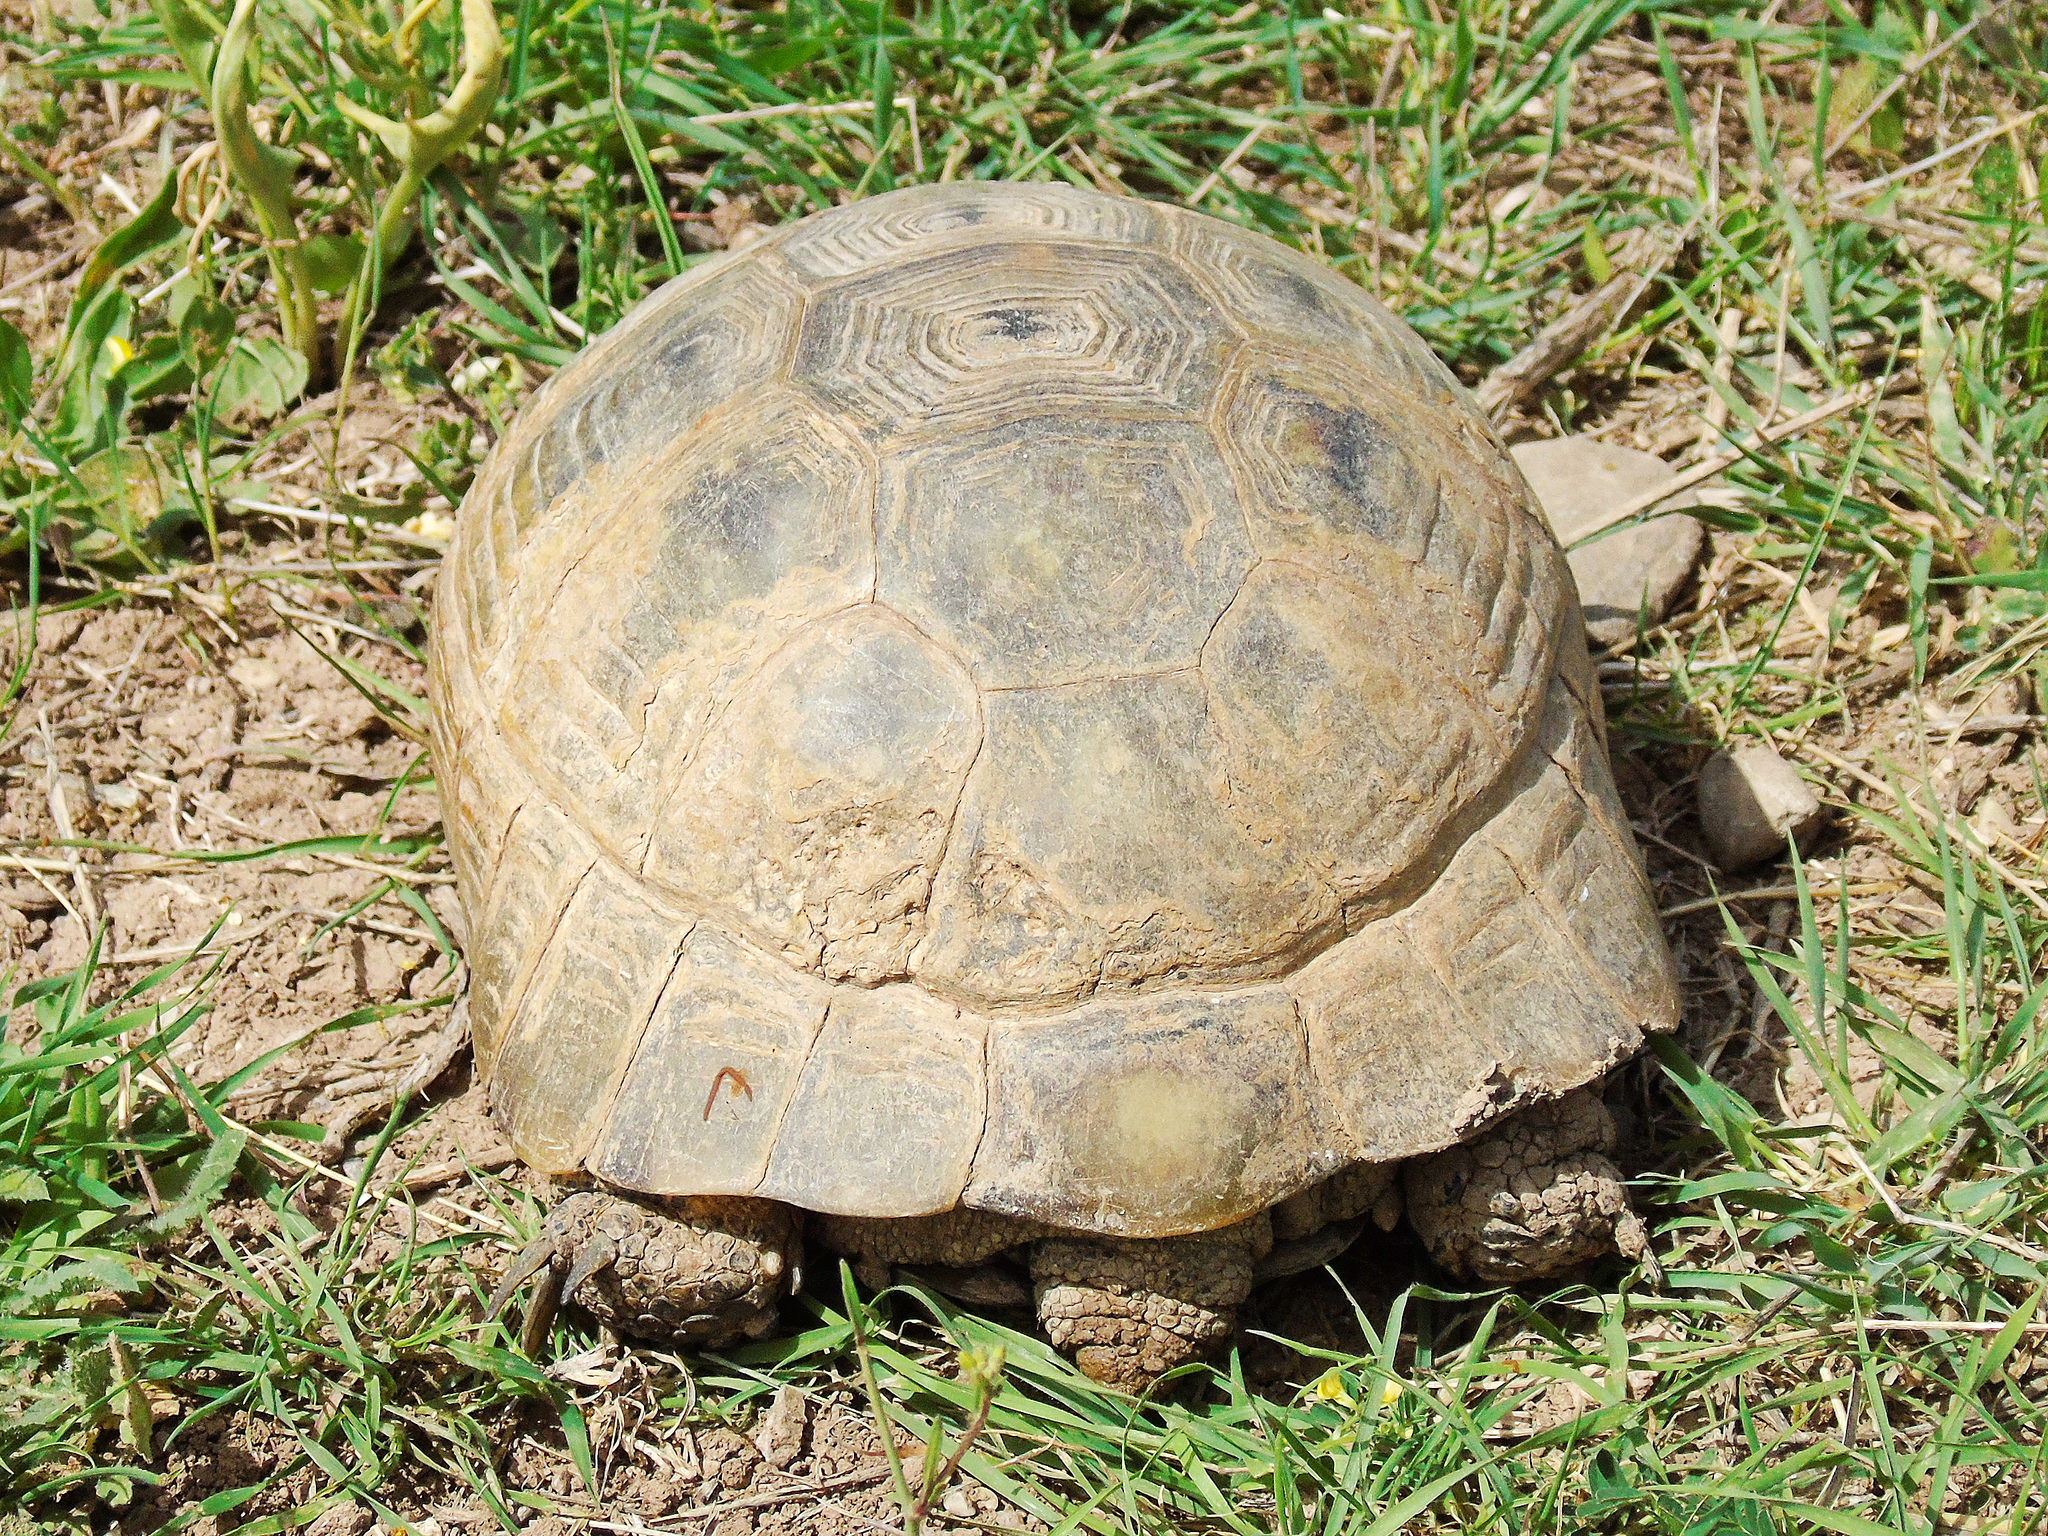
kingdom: Animalia
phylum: Chordata
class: Testudines
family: Testudinidae
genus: Testudo
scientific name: Testudo graeca
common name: Common tortoise
